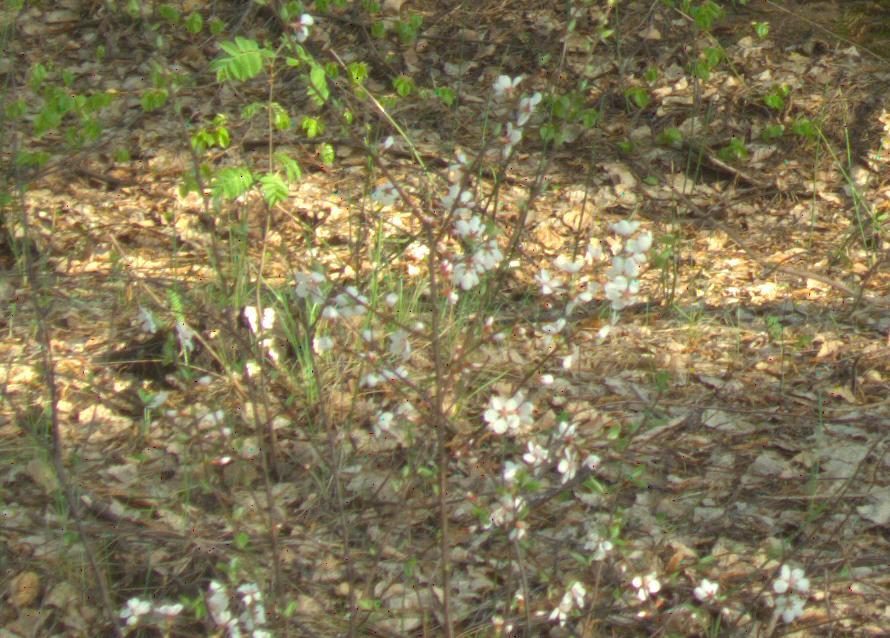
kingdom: Plantae
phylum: Tracheophyta
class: Magnoliopsida
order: Rosales
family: Rosaceae
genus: Prunus
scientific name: Prunus tomentosa
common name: Nanking cherry
